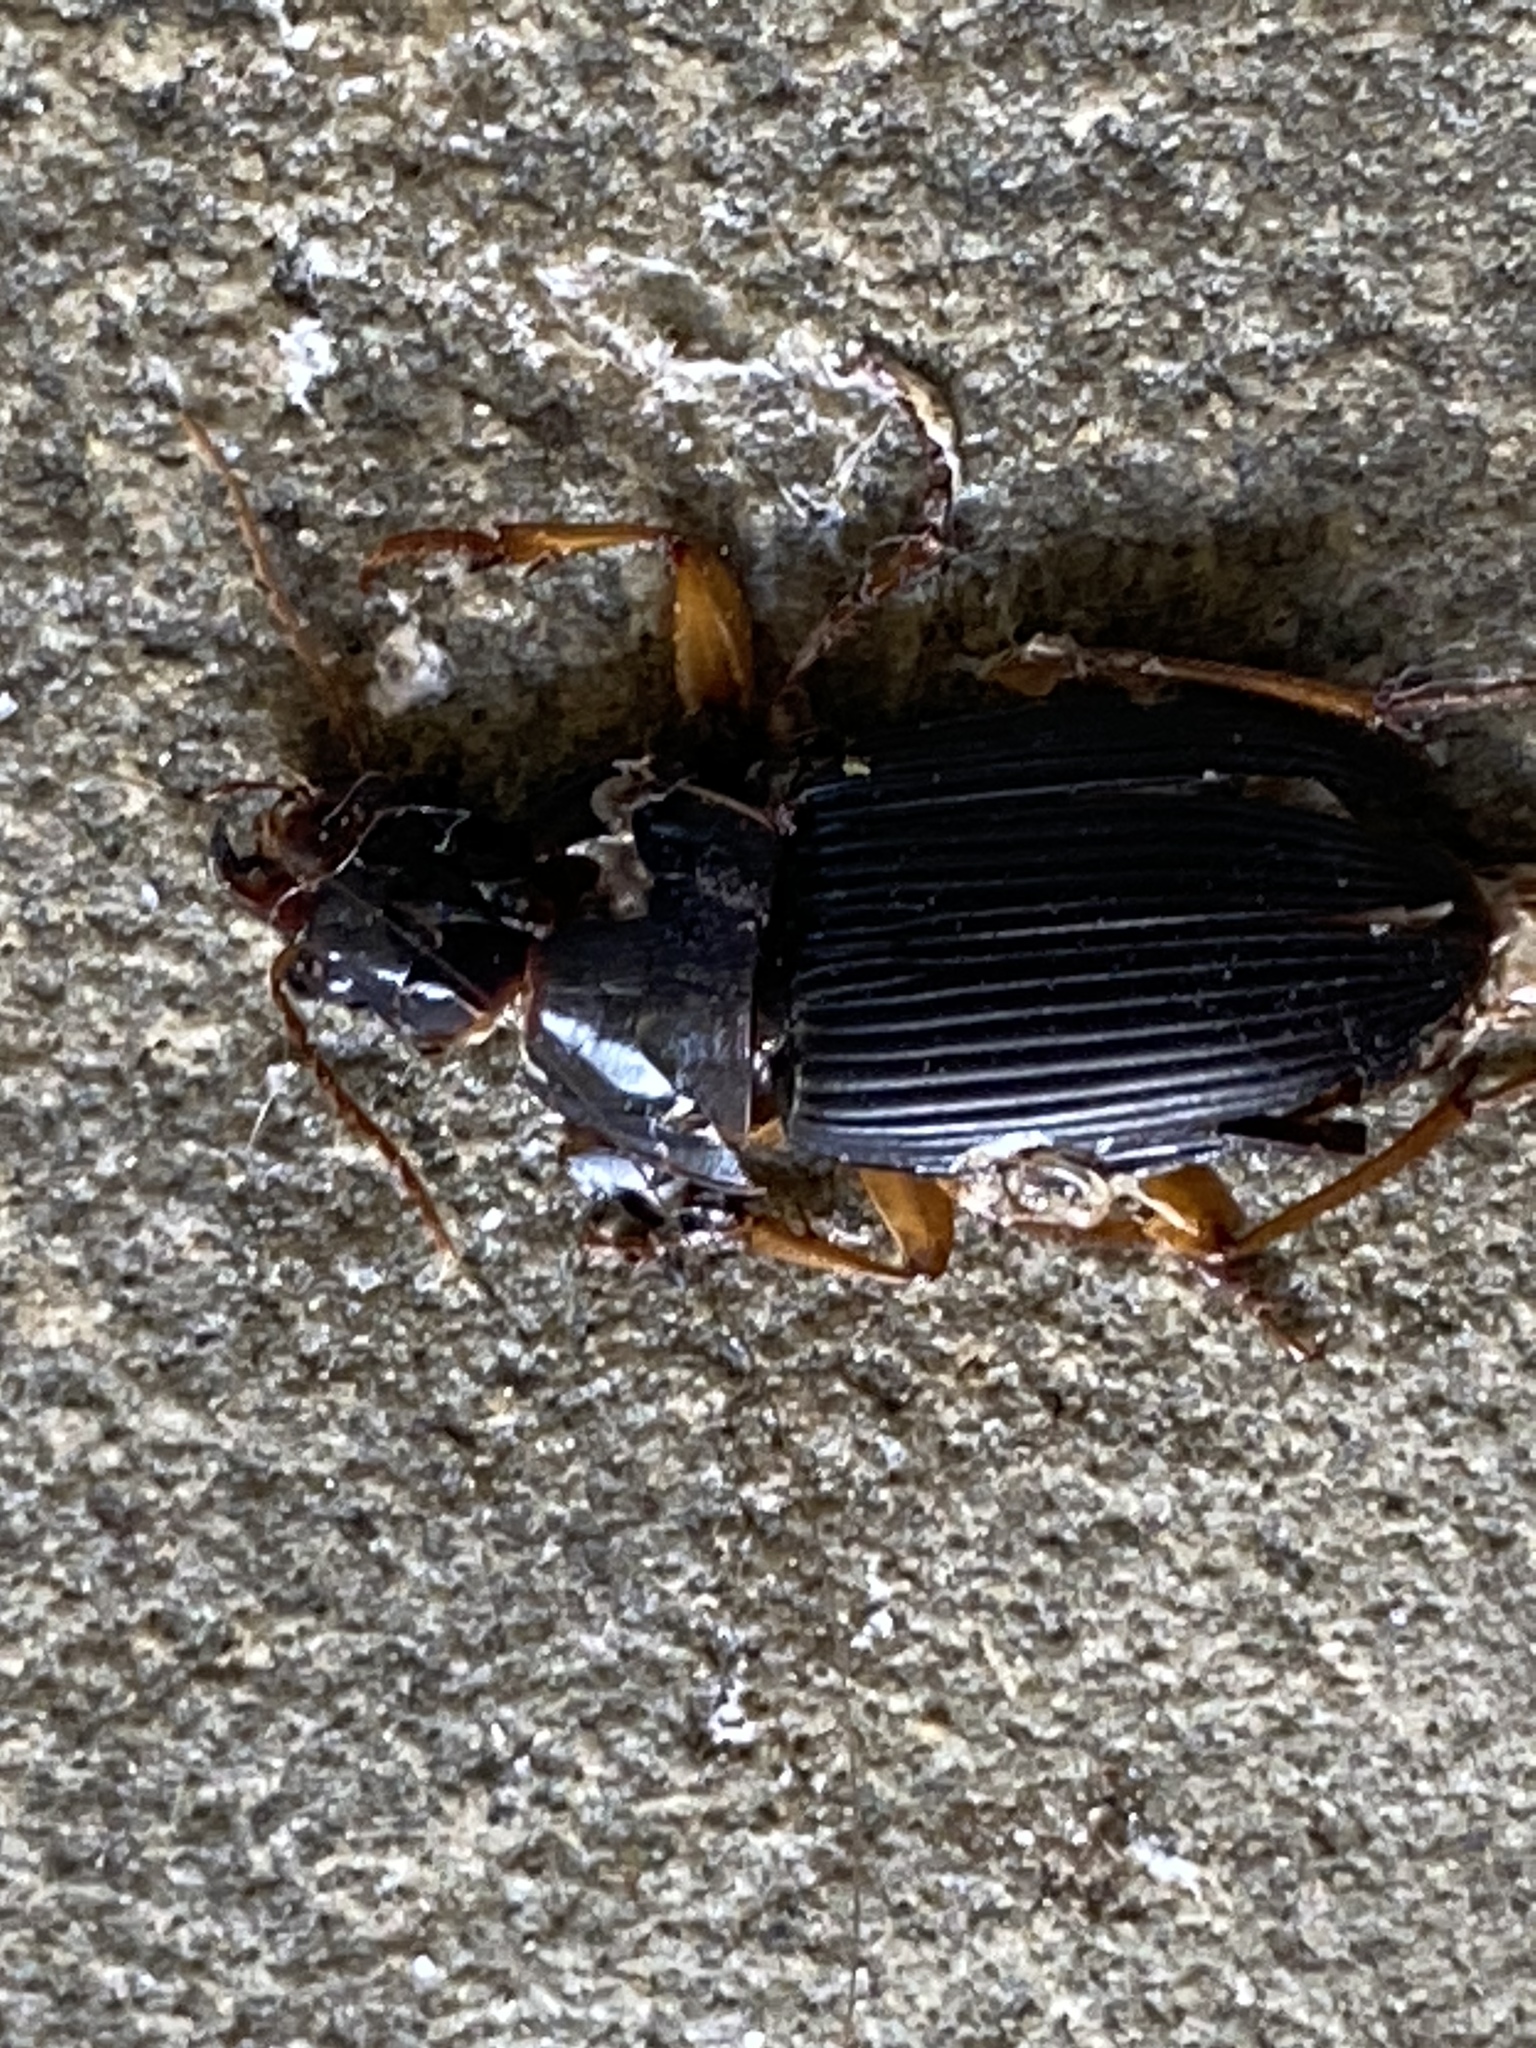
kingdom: Animalia
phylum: Arthropoda
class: Insecta
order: Coleoptera
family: Carabidae
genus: Pseudoophonus
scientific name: Pseudoophonus
